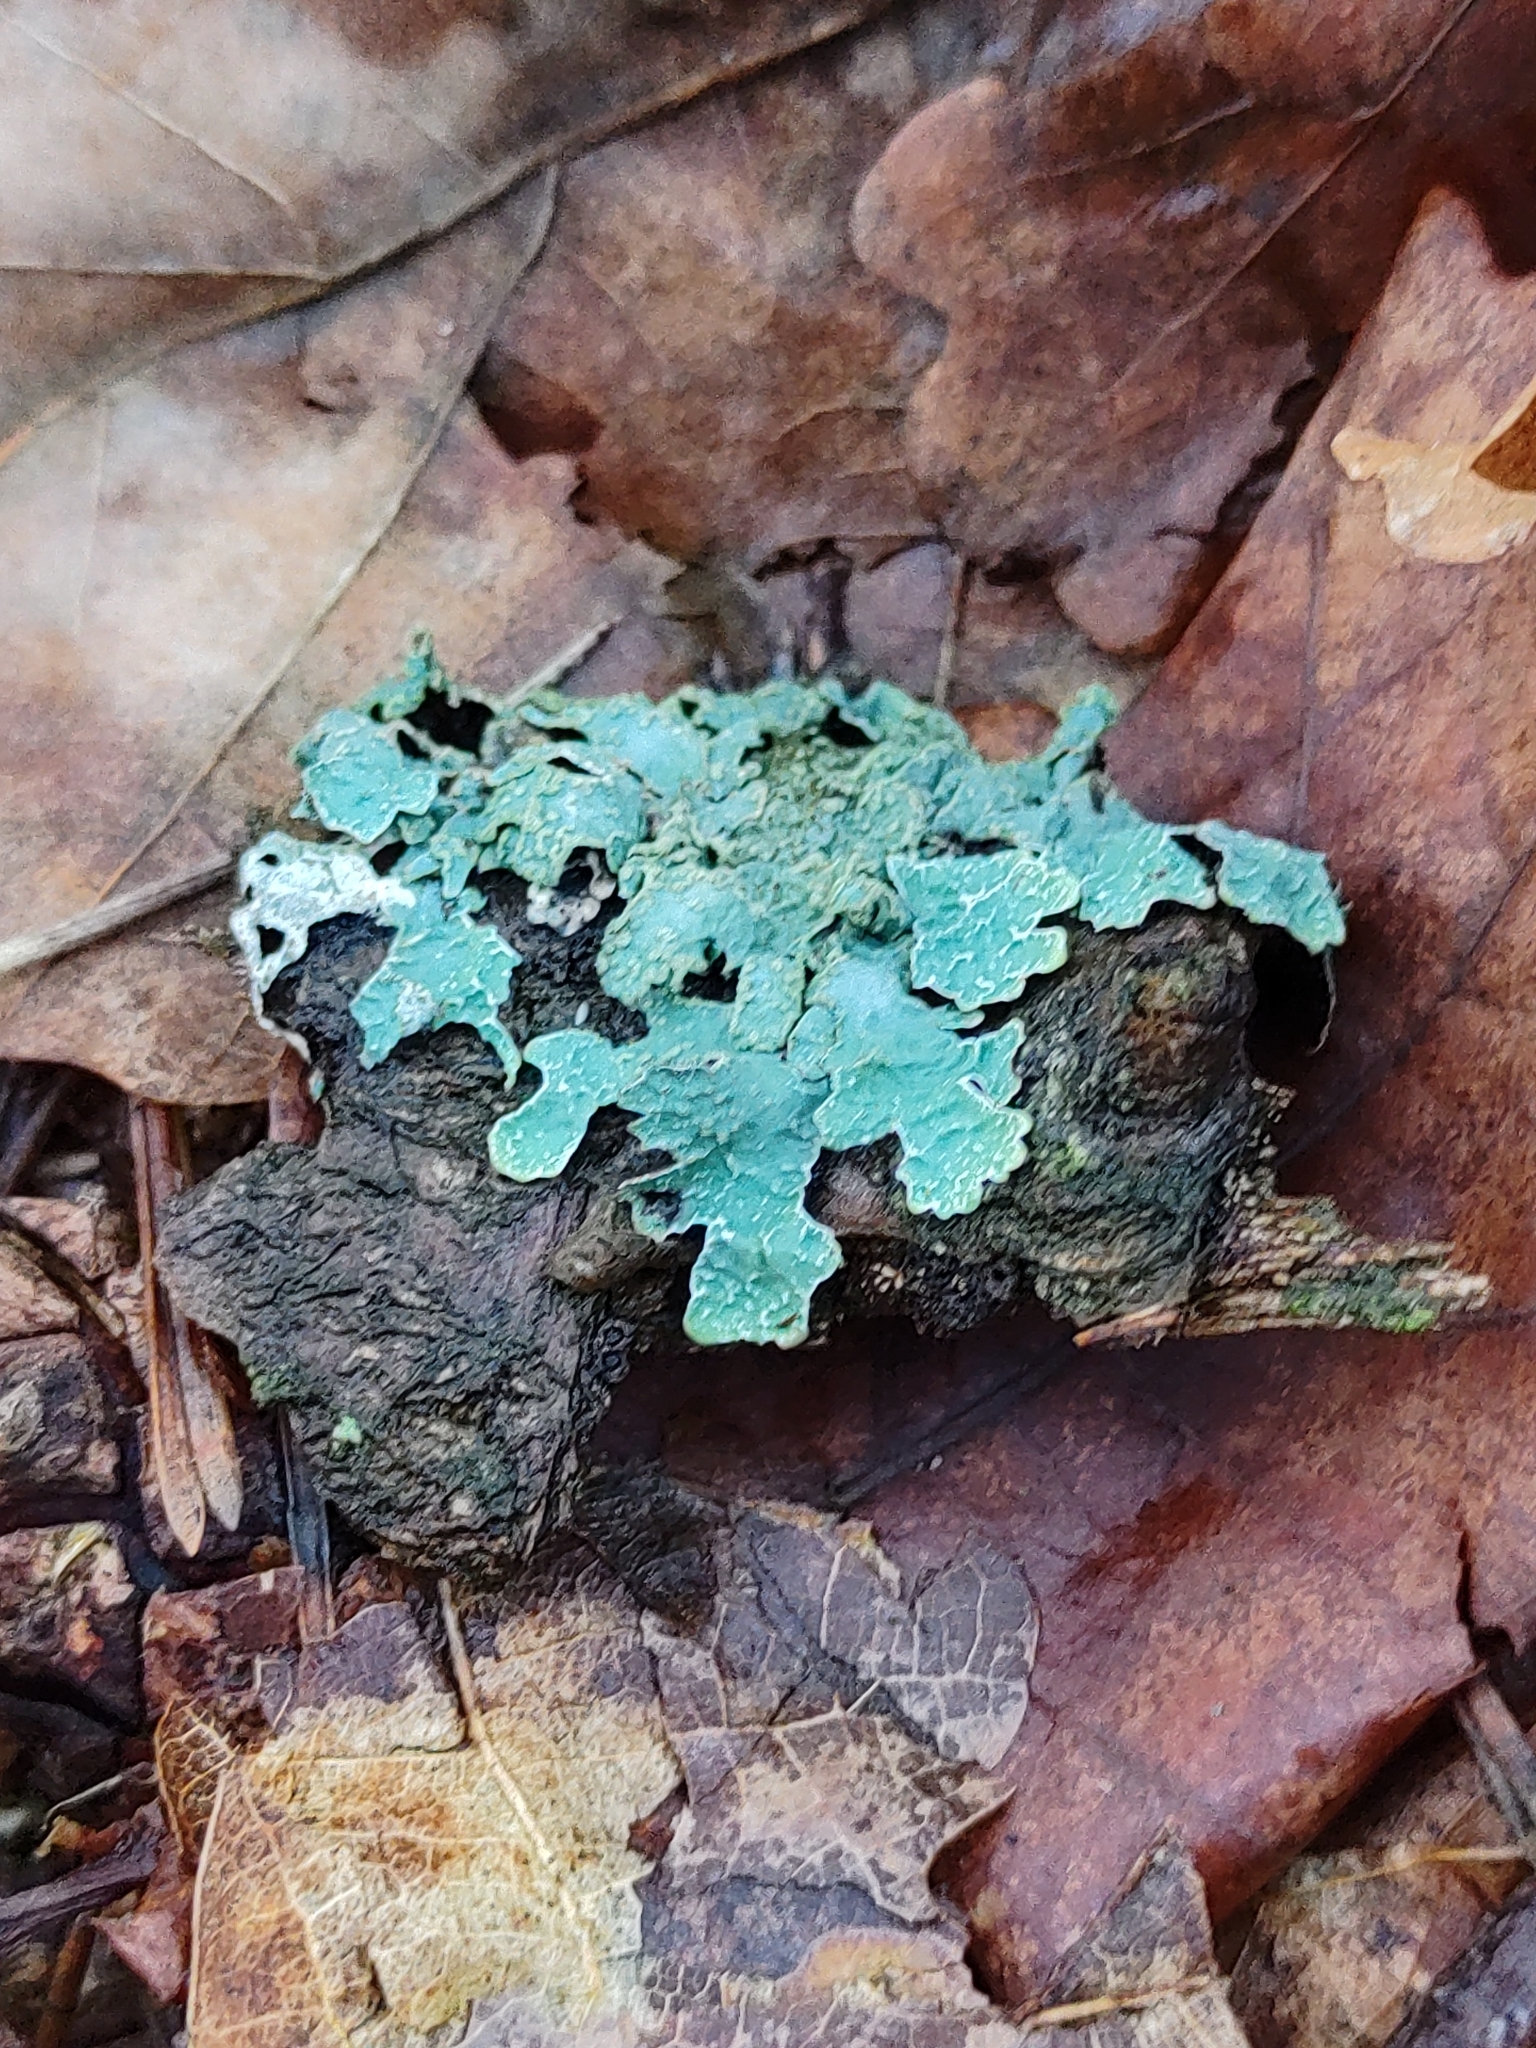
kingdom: Fungi
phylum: Ascomycota
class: Lecanoromycetes
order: Lecanorales
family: Parmeliaceae
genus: Parmelia
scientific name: Parmelia sulcata
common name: Netted shield lichen
